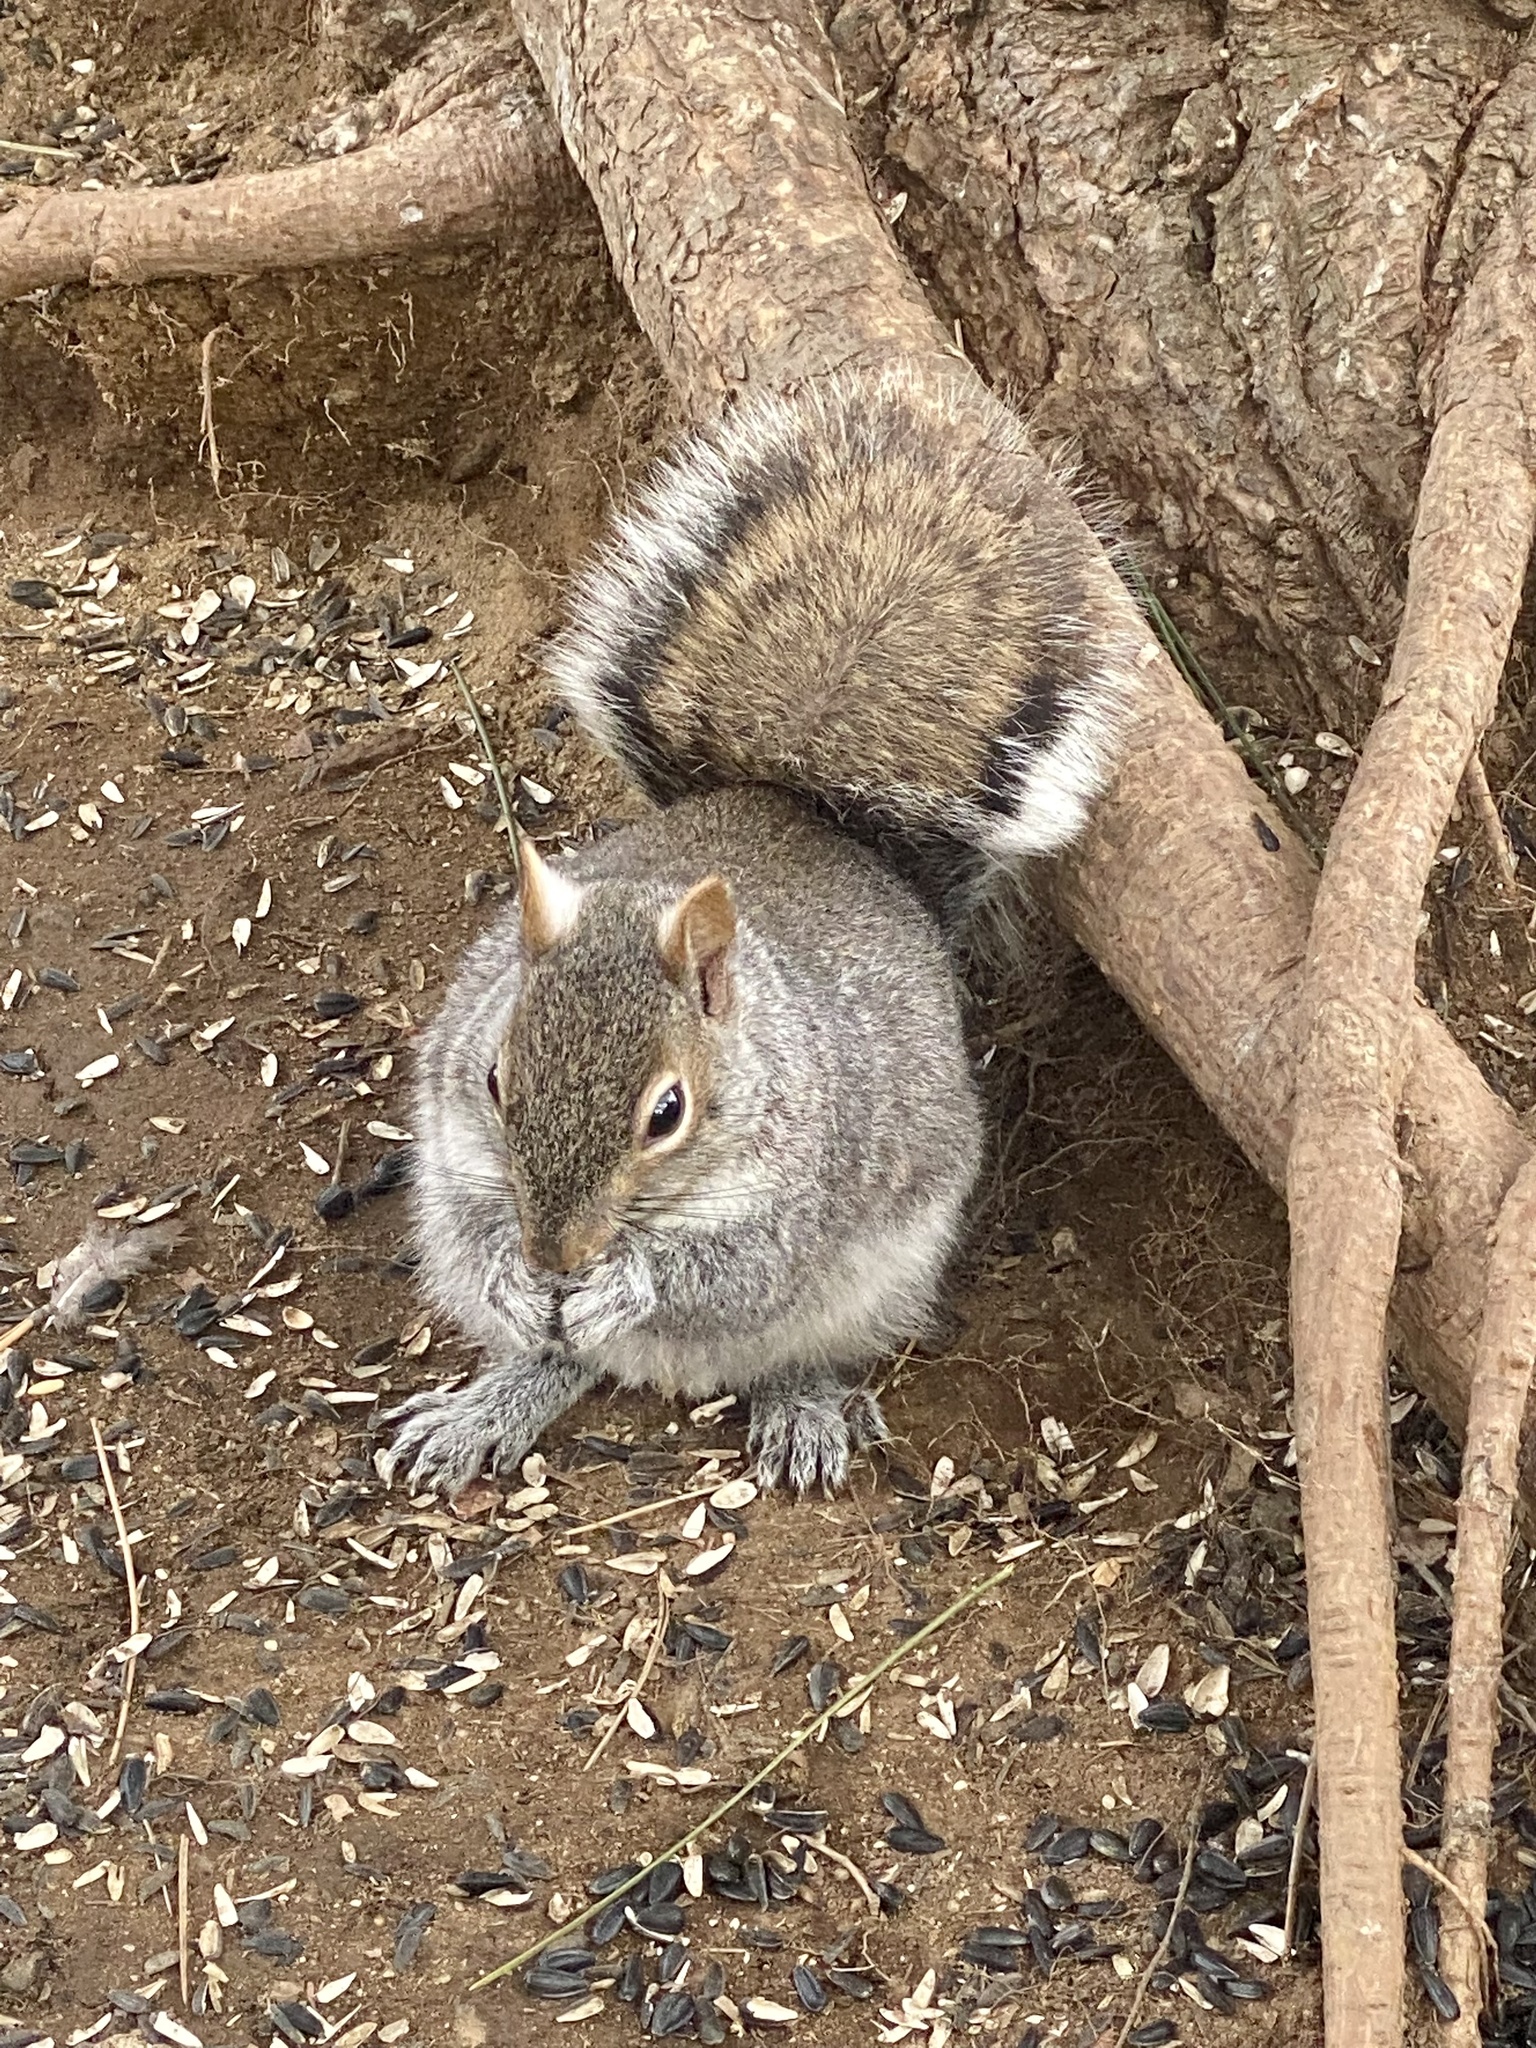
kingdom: Animalia
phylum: Chordata
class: Mammalia
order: Rodentia
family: Sciuridae
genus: Sciurus
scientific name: Sciurus carolinensis
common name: Eastern gray squirrel
